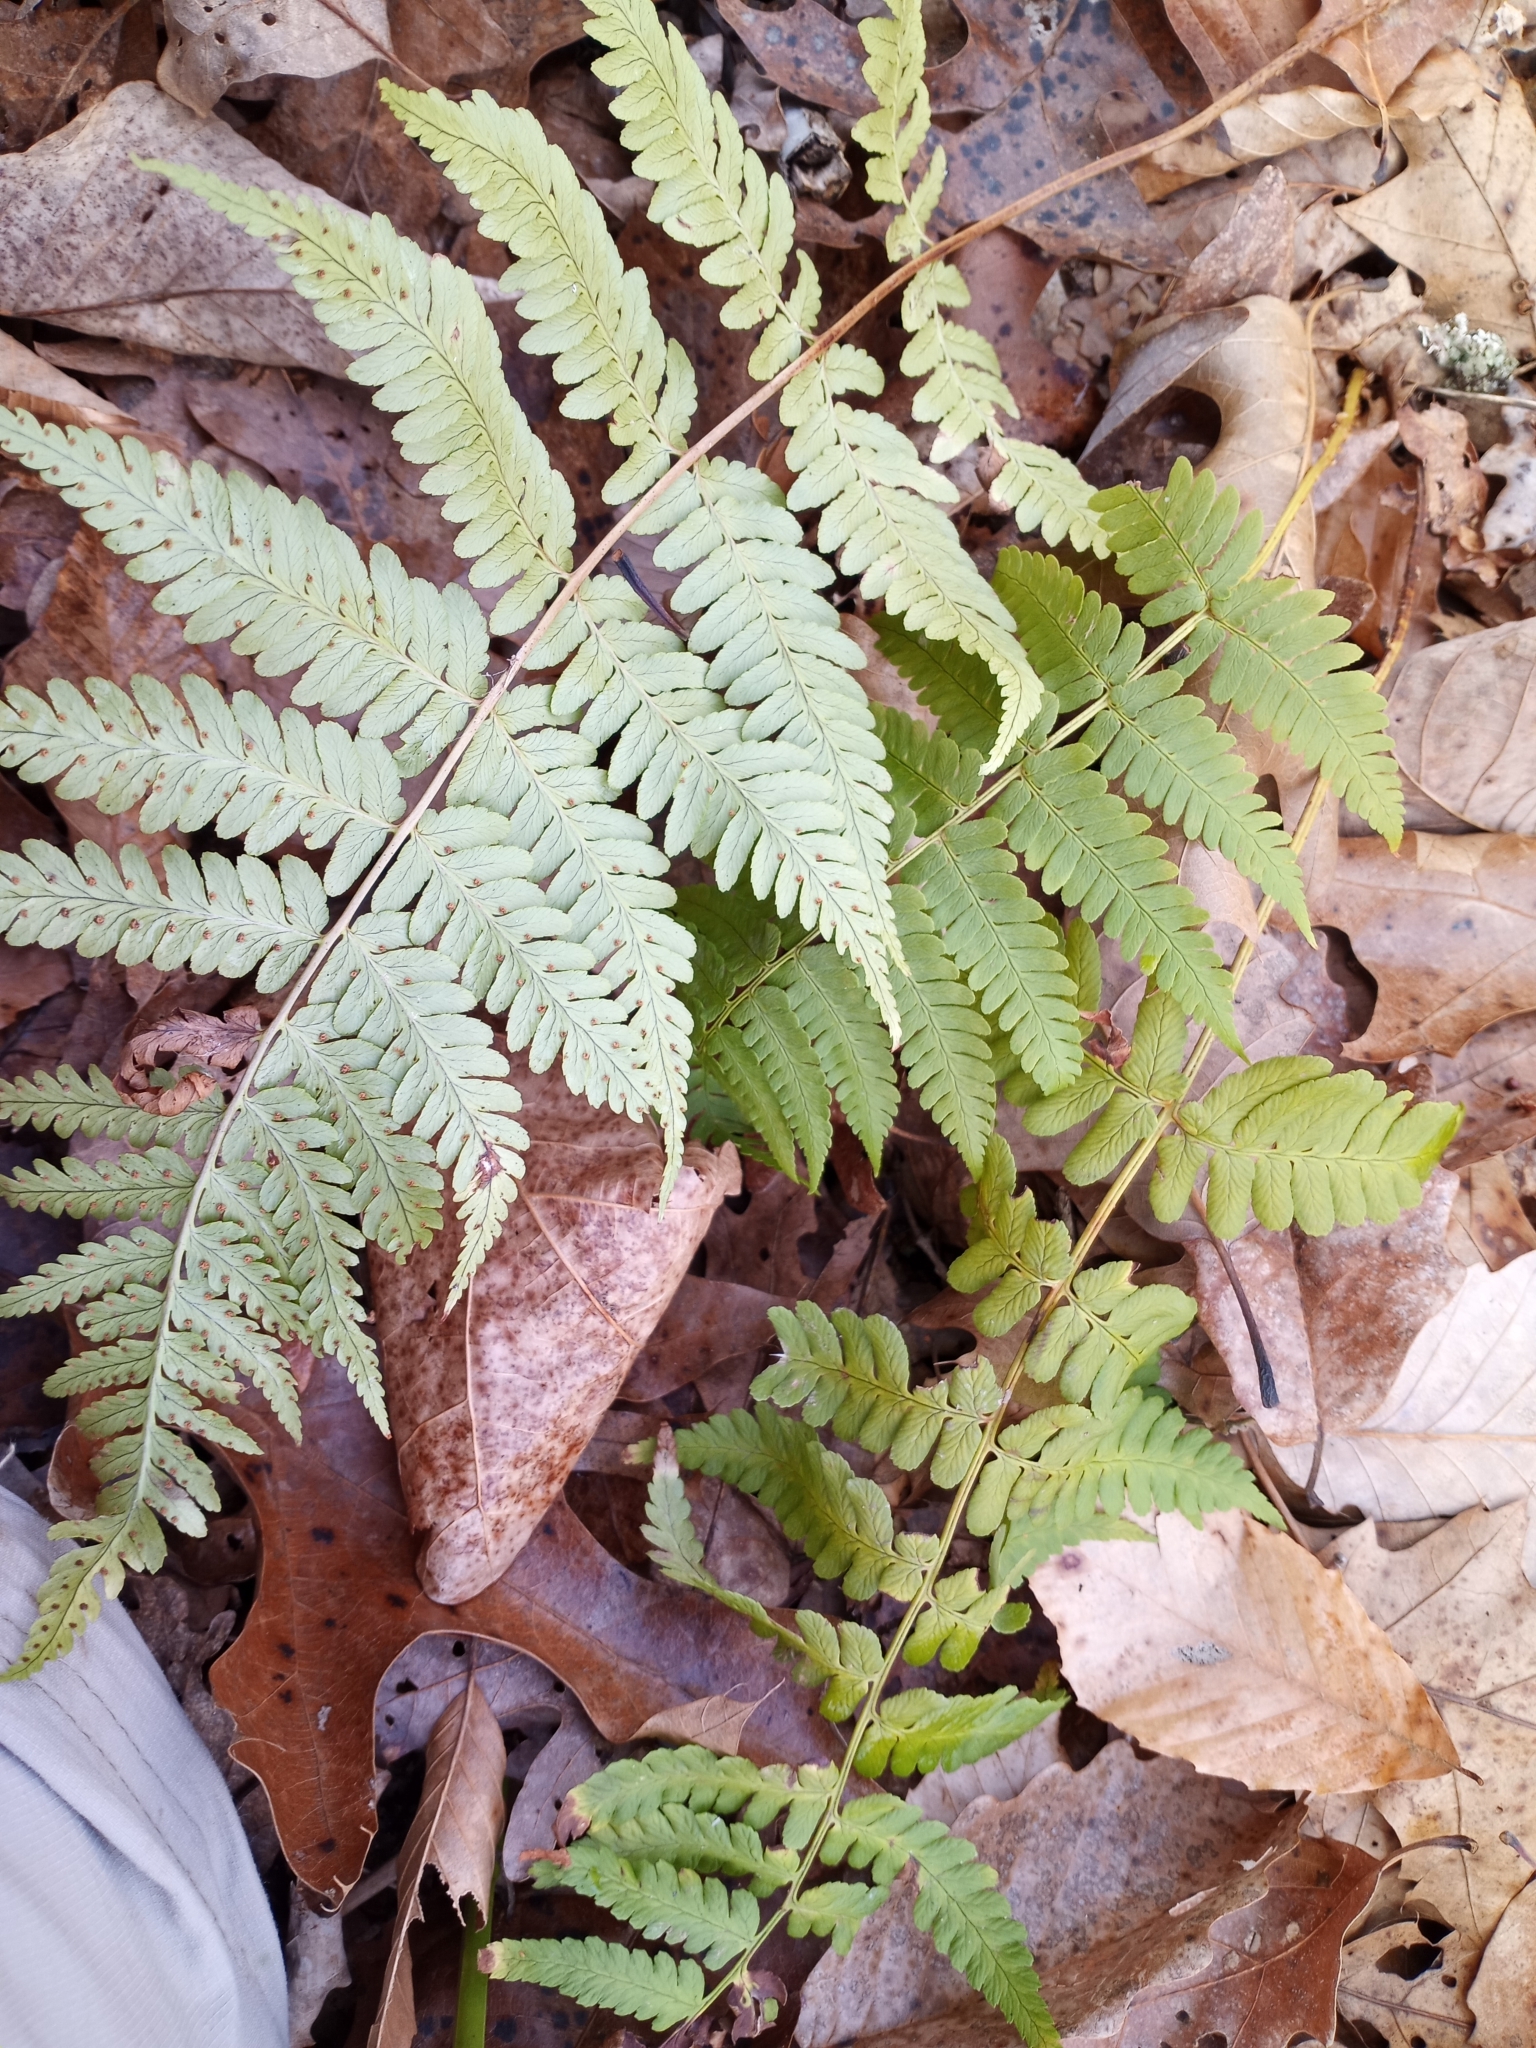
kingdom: Plantae
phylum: Tracheophyta
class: Polypodiopsida
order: Polypodiales
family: Dryopteridaceae
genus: Dryopteris
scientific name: Dryopteris marginalis
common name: Marginal wood fern
